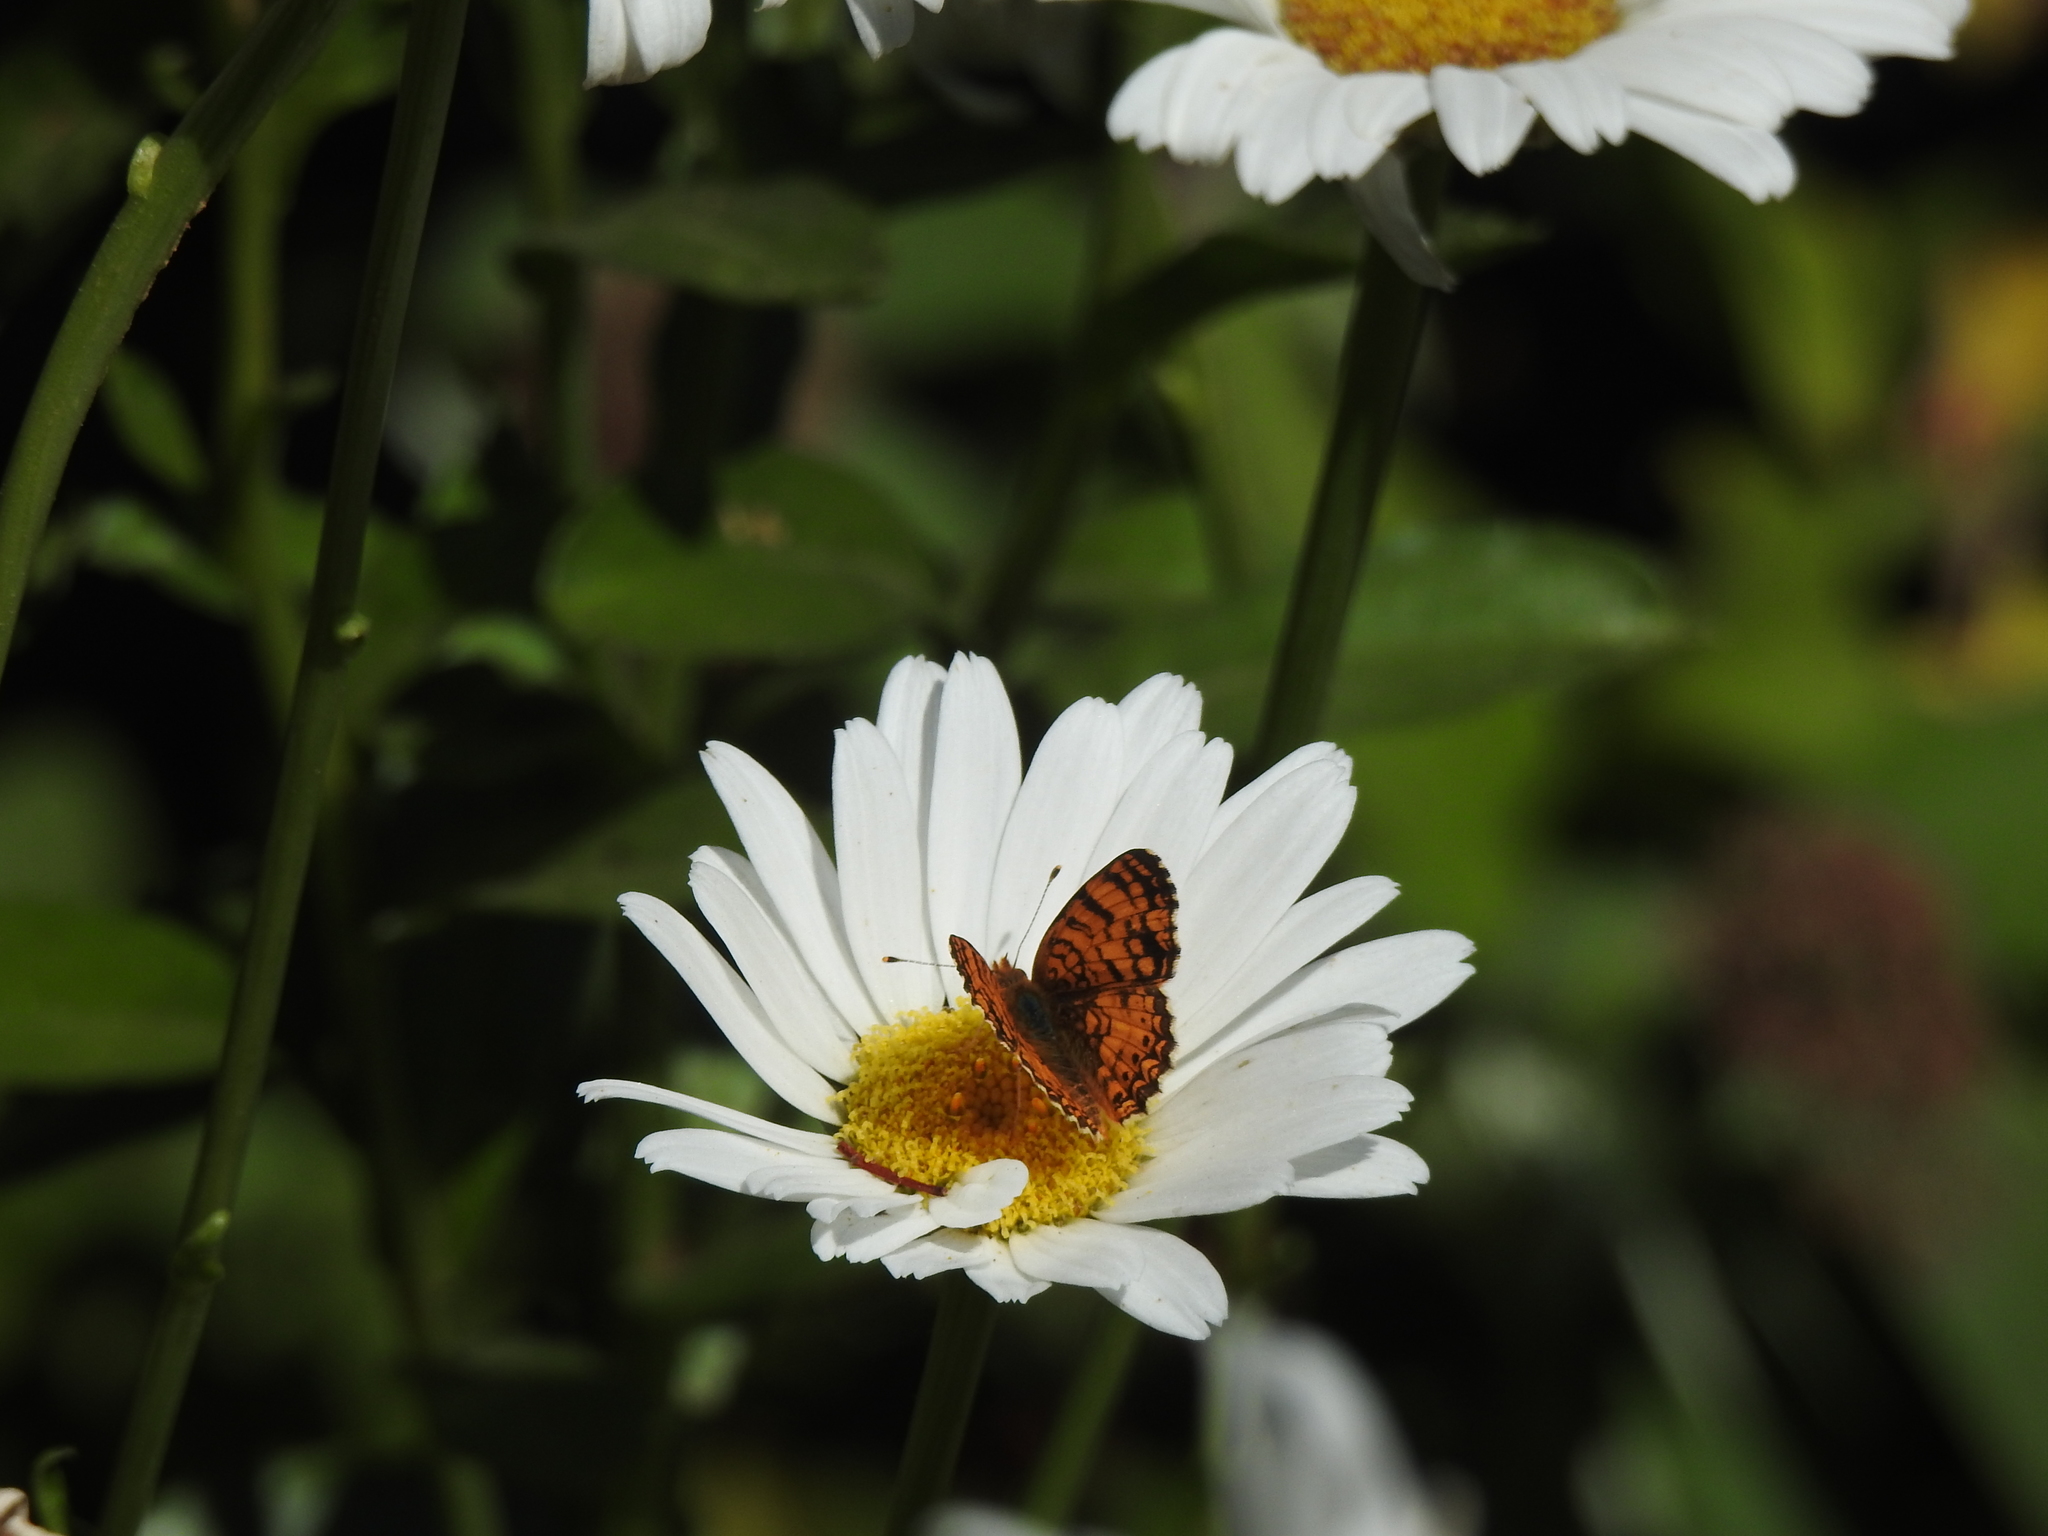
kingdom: Animalia
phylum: Arthropoda
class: Insecta
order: Lepidoptera
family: Nymphalidae
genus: Eresia
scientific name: Eresia aveyrona
